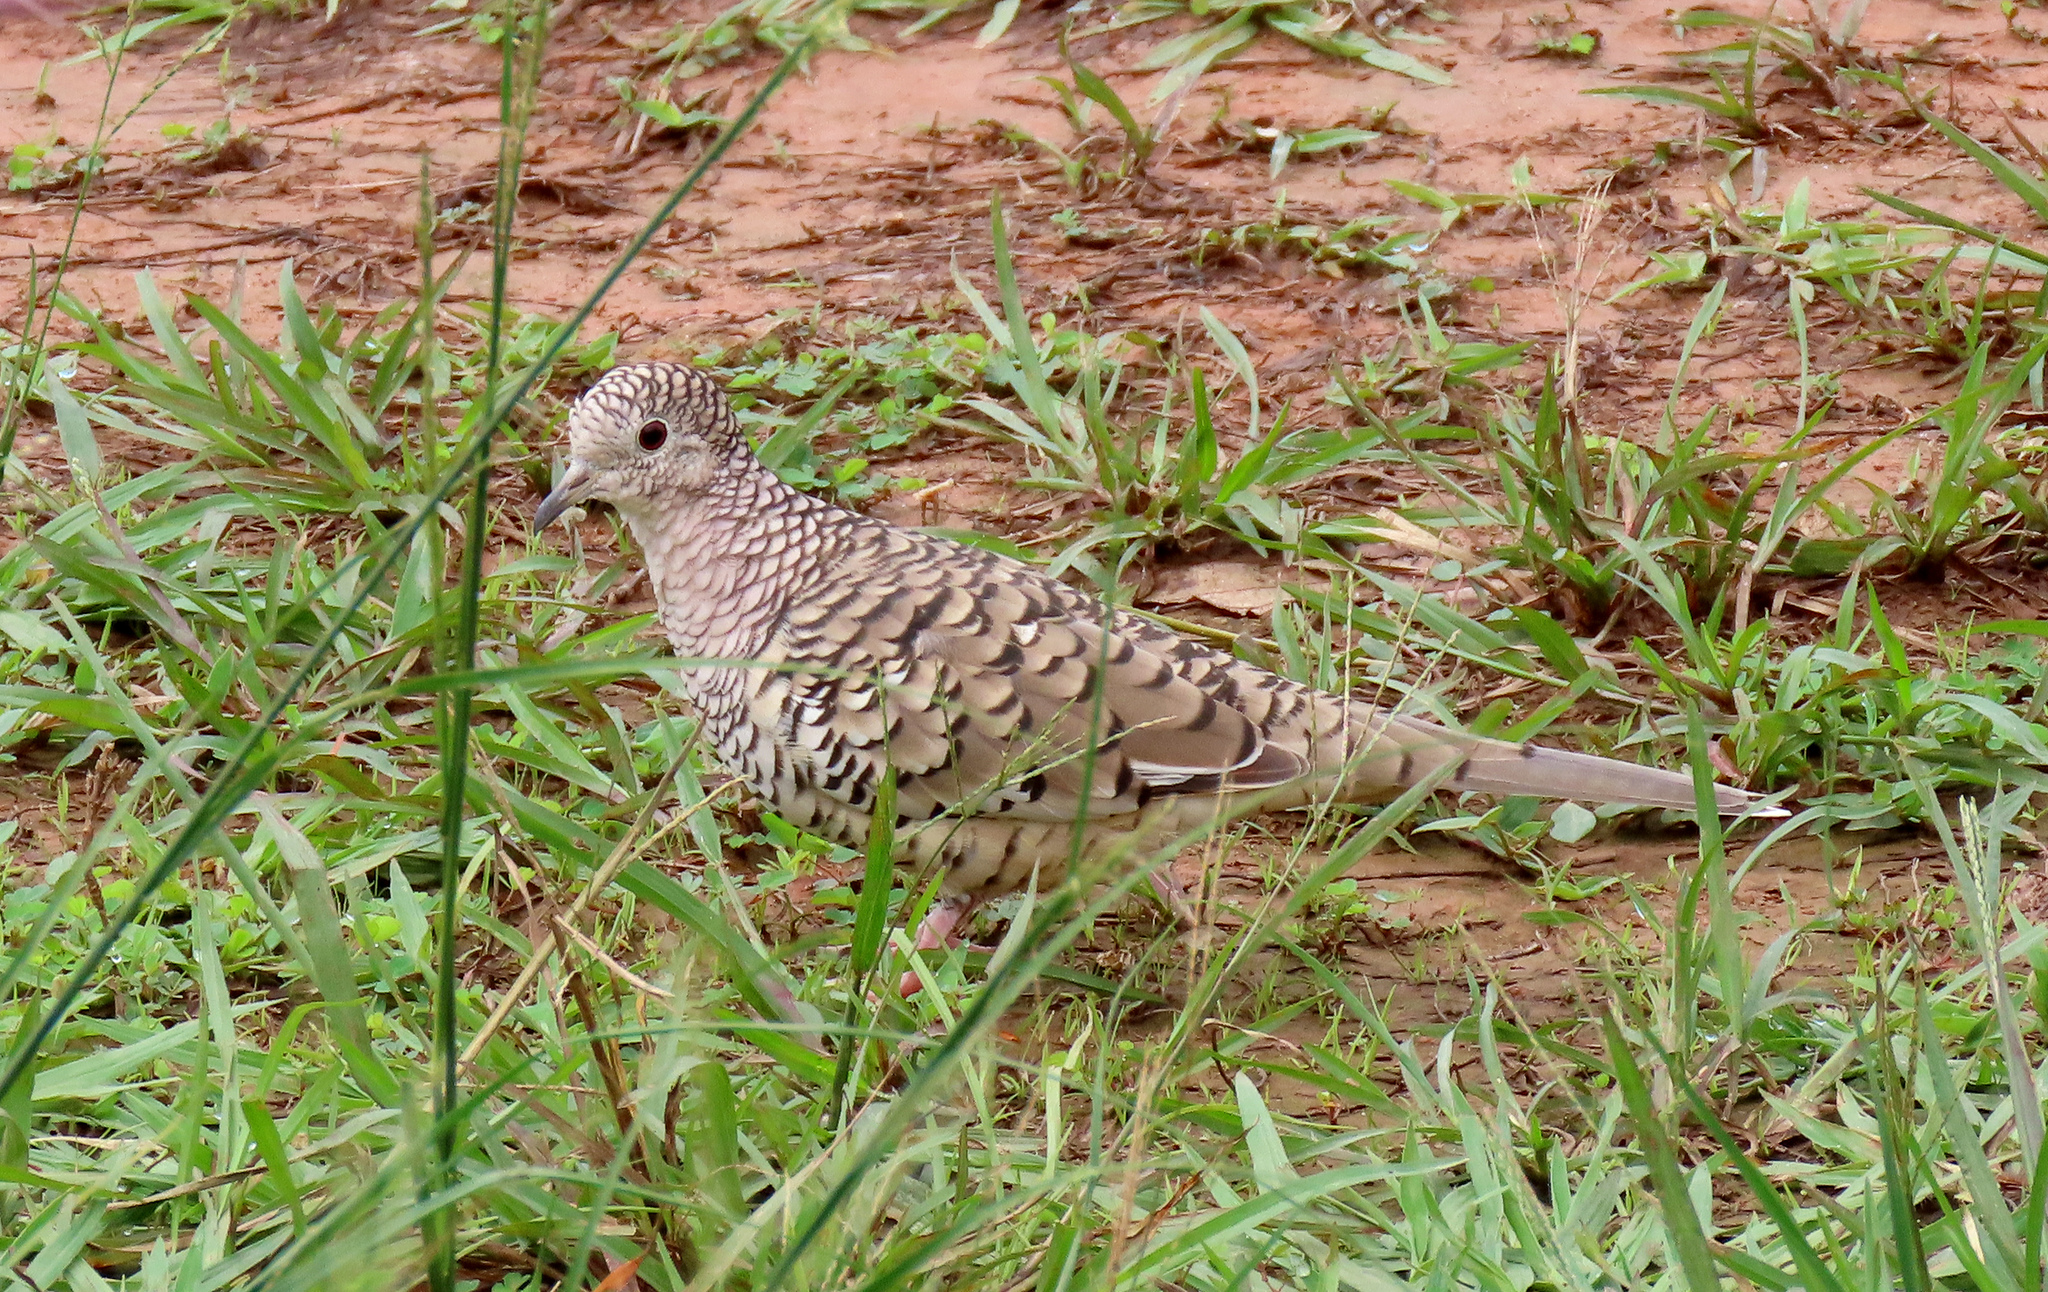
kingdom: Animalia
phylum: Chordata
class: Aves
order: Columbiformes
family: Columbidae
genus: Columbina
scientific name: Columbina squammata
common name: Scaled dove
